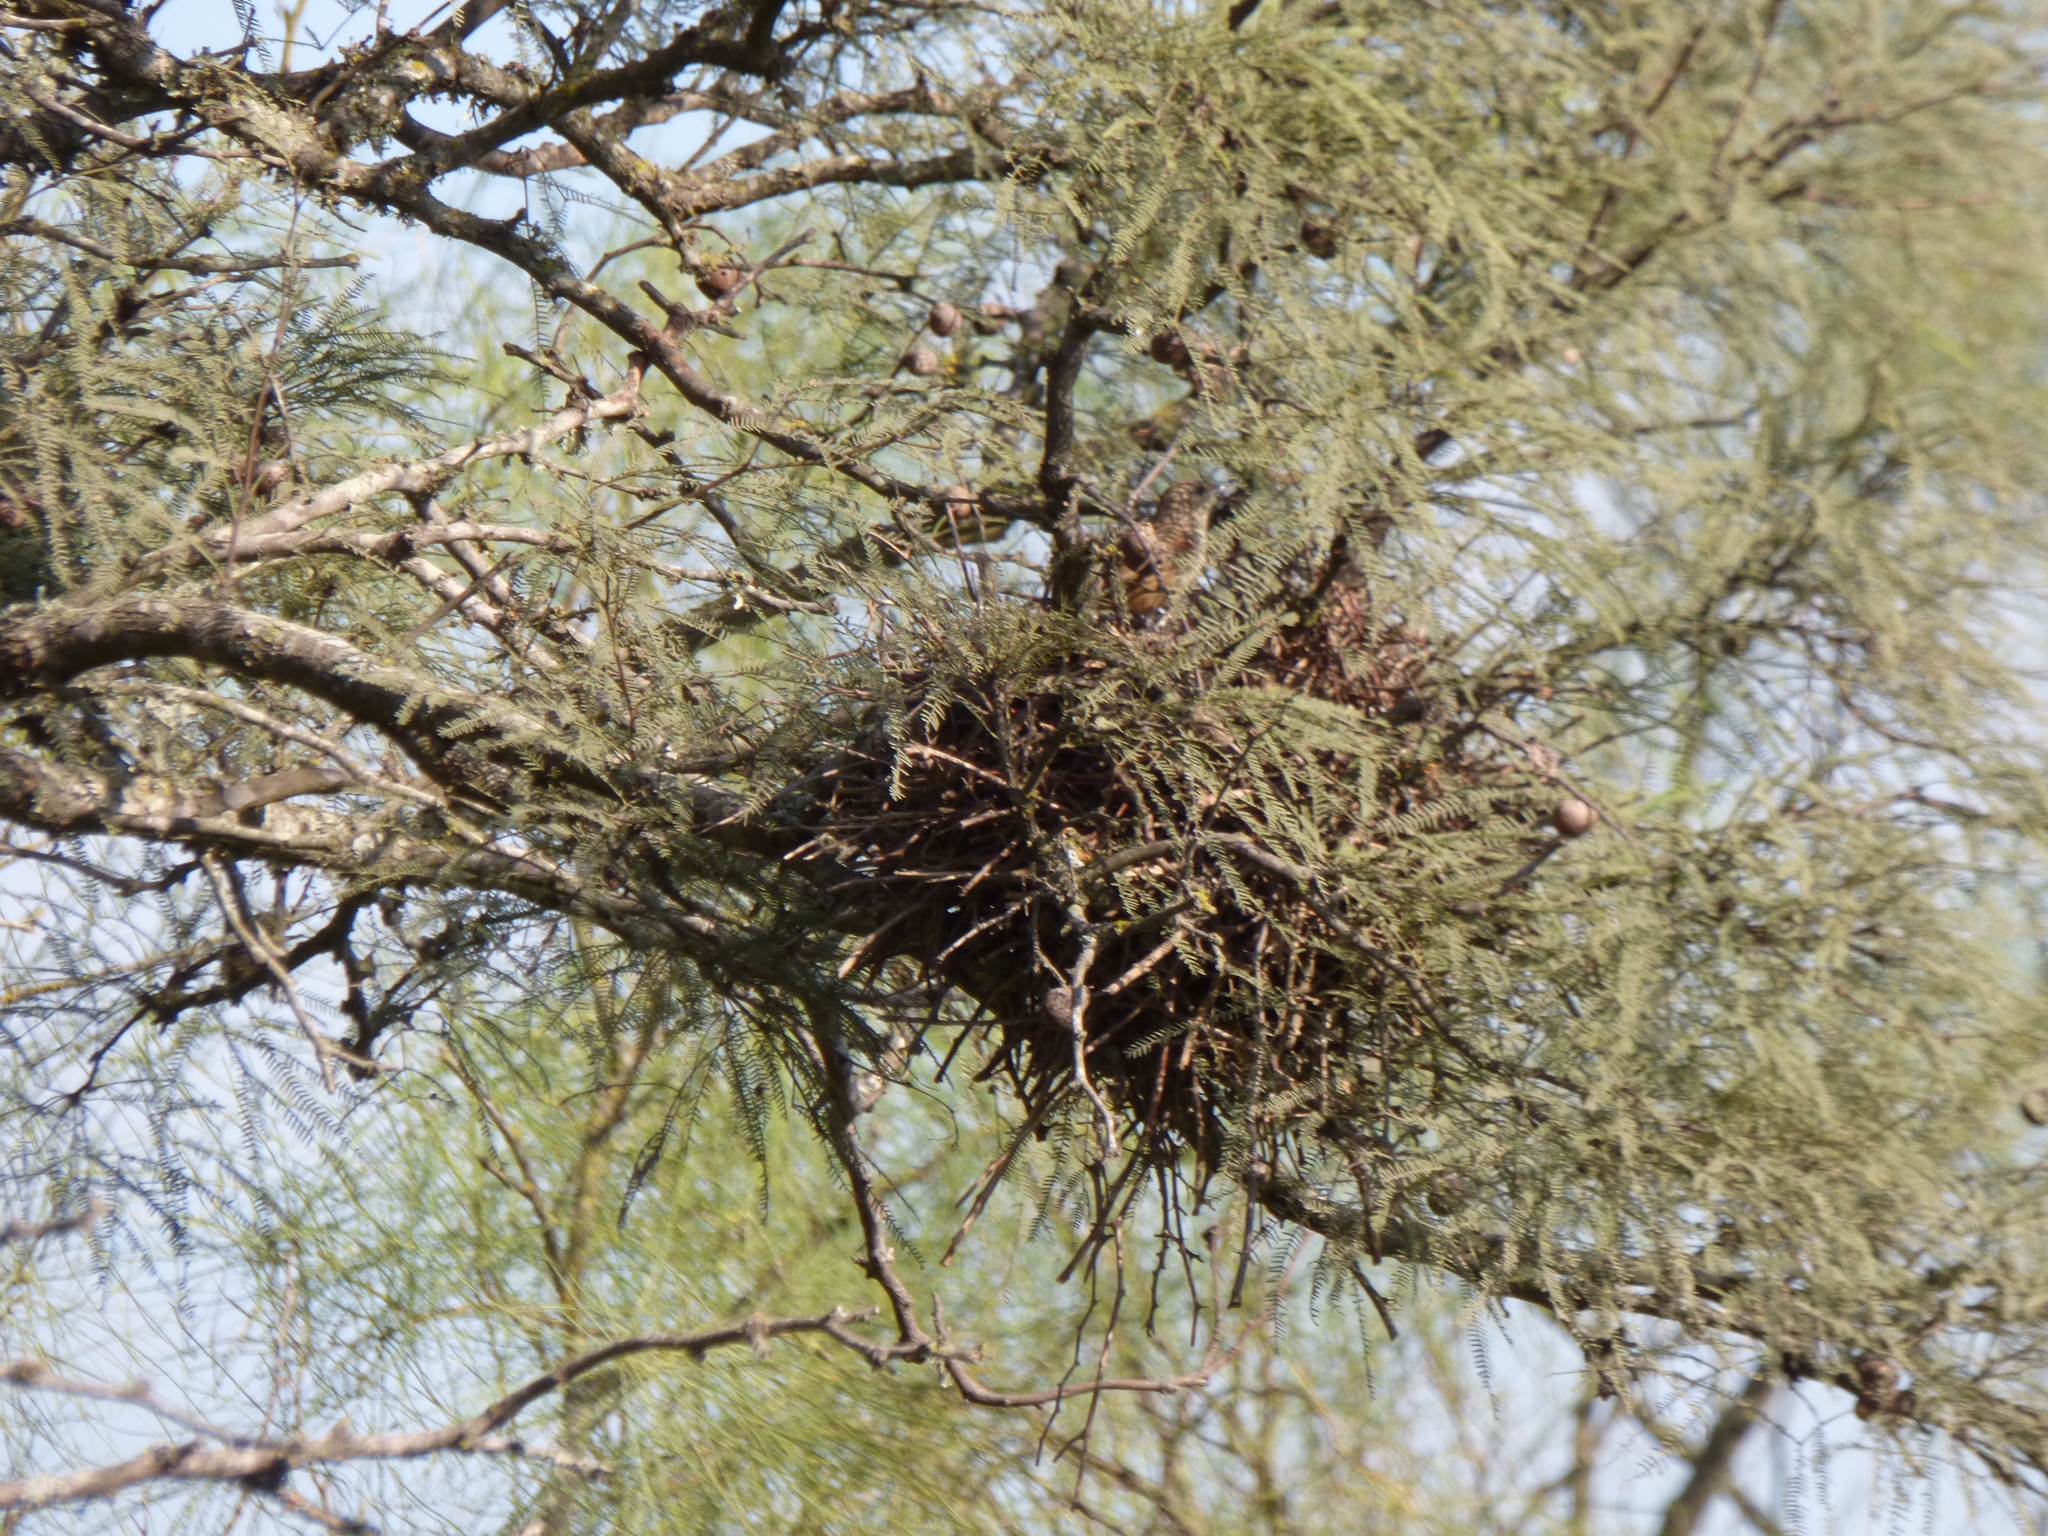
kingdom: Animalia
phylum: Chordata
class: Aves
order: Passeriformes
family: Furnariidae
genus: Phacellodomus
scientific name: Phacellodomus sibilatrix
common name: Little thornbird
